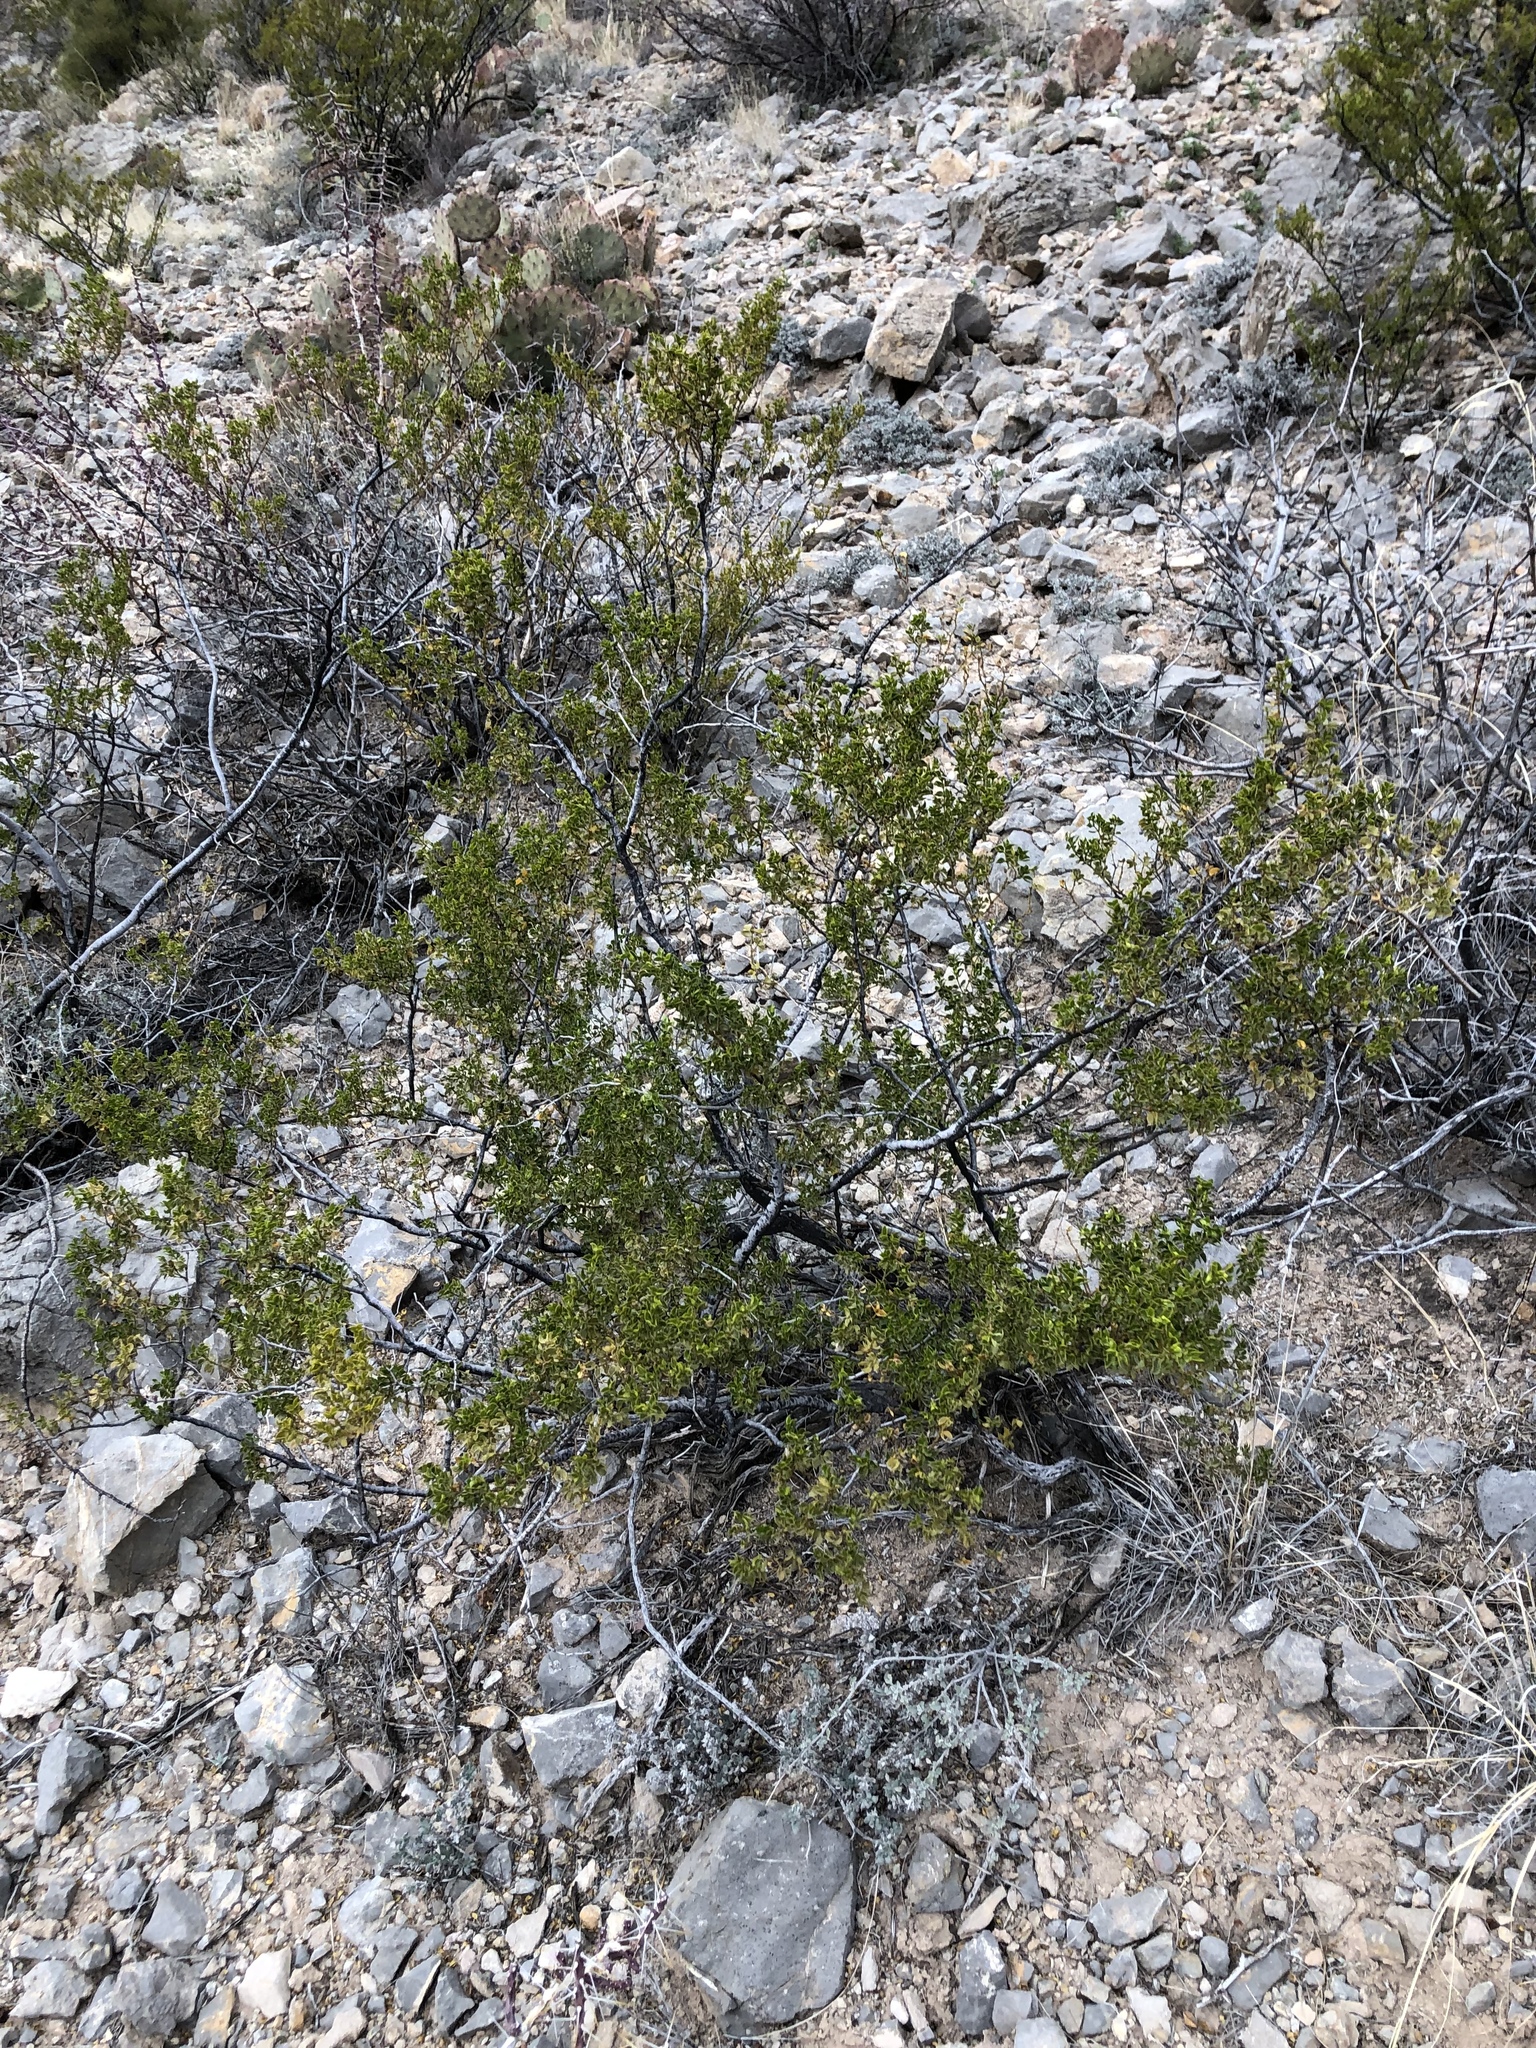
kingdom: Plantae
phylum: Tracheophyta
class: Magnoliopsida
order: Zygophyllales
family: Zygophyllaceae
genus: Larrea
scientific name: Larrea tridentata
